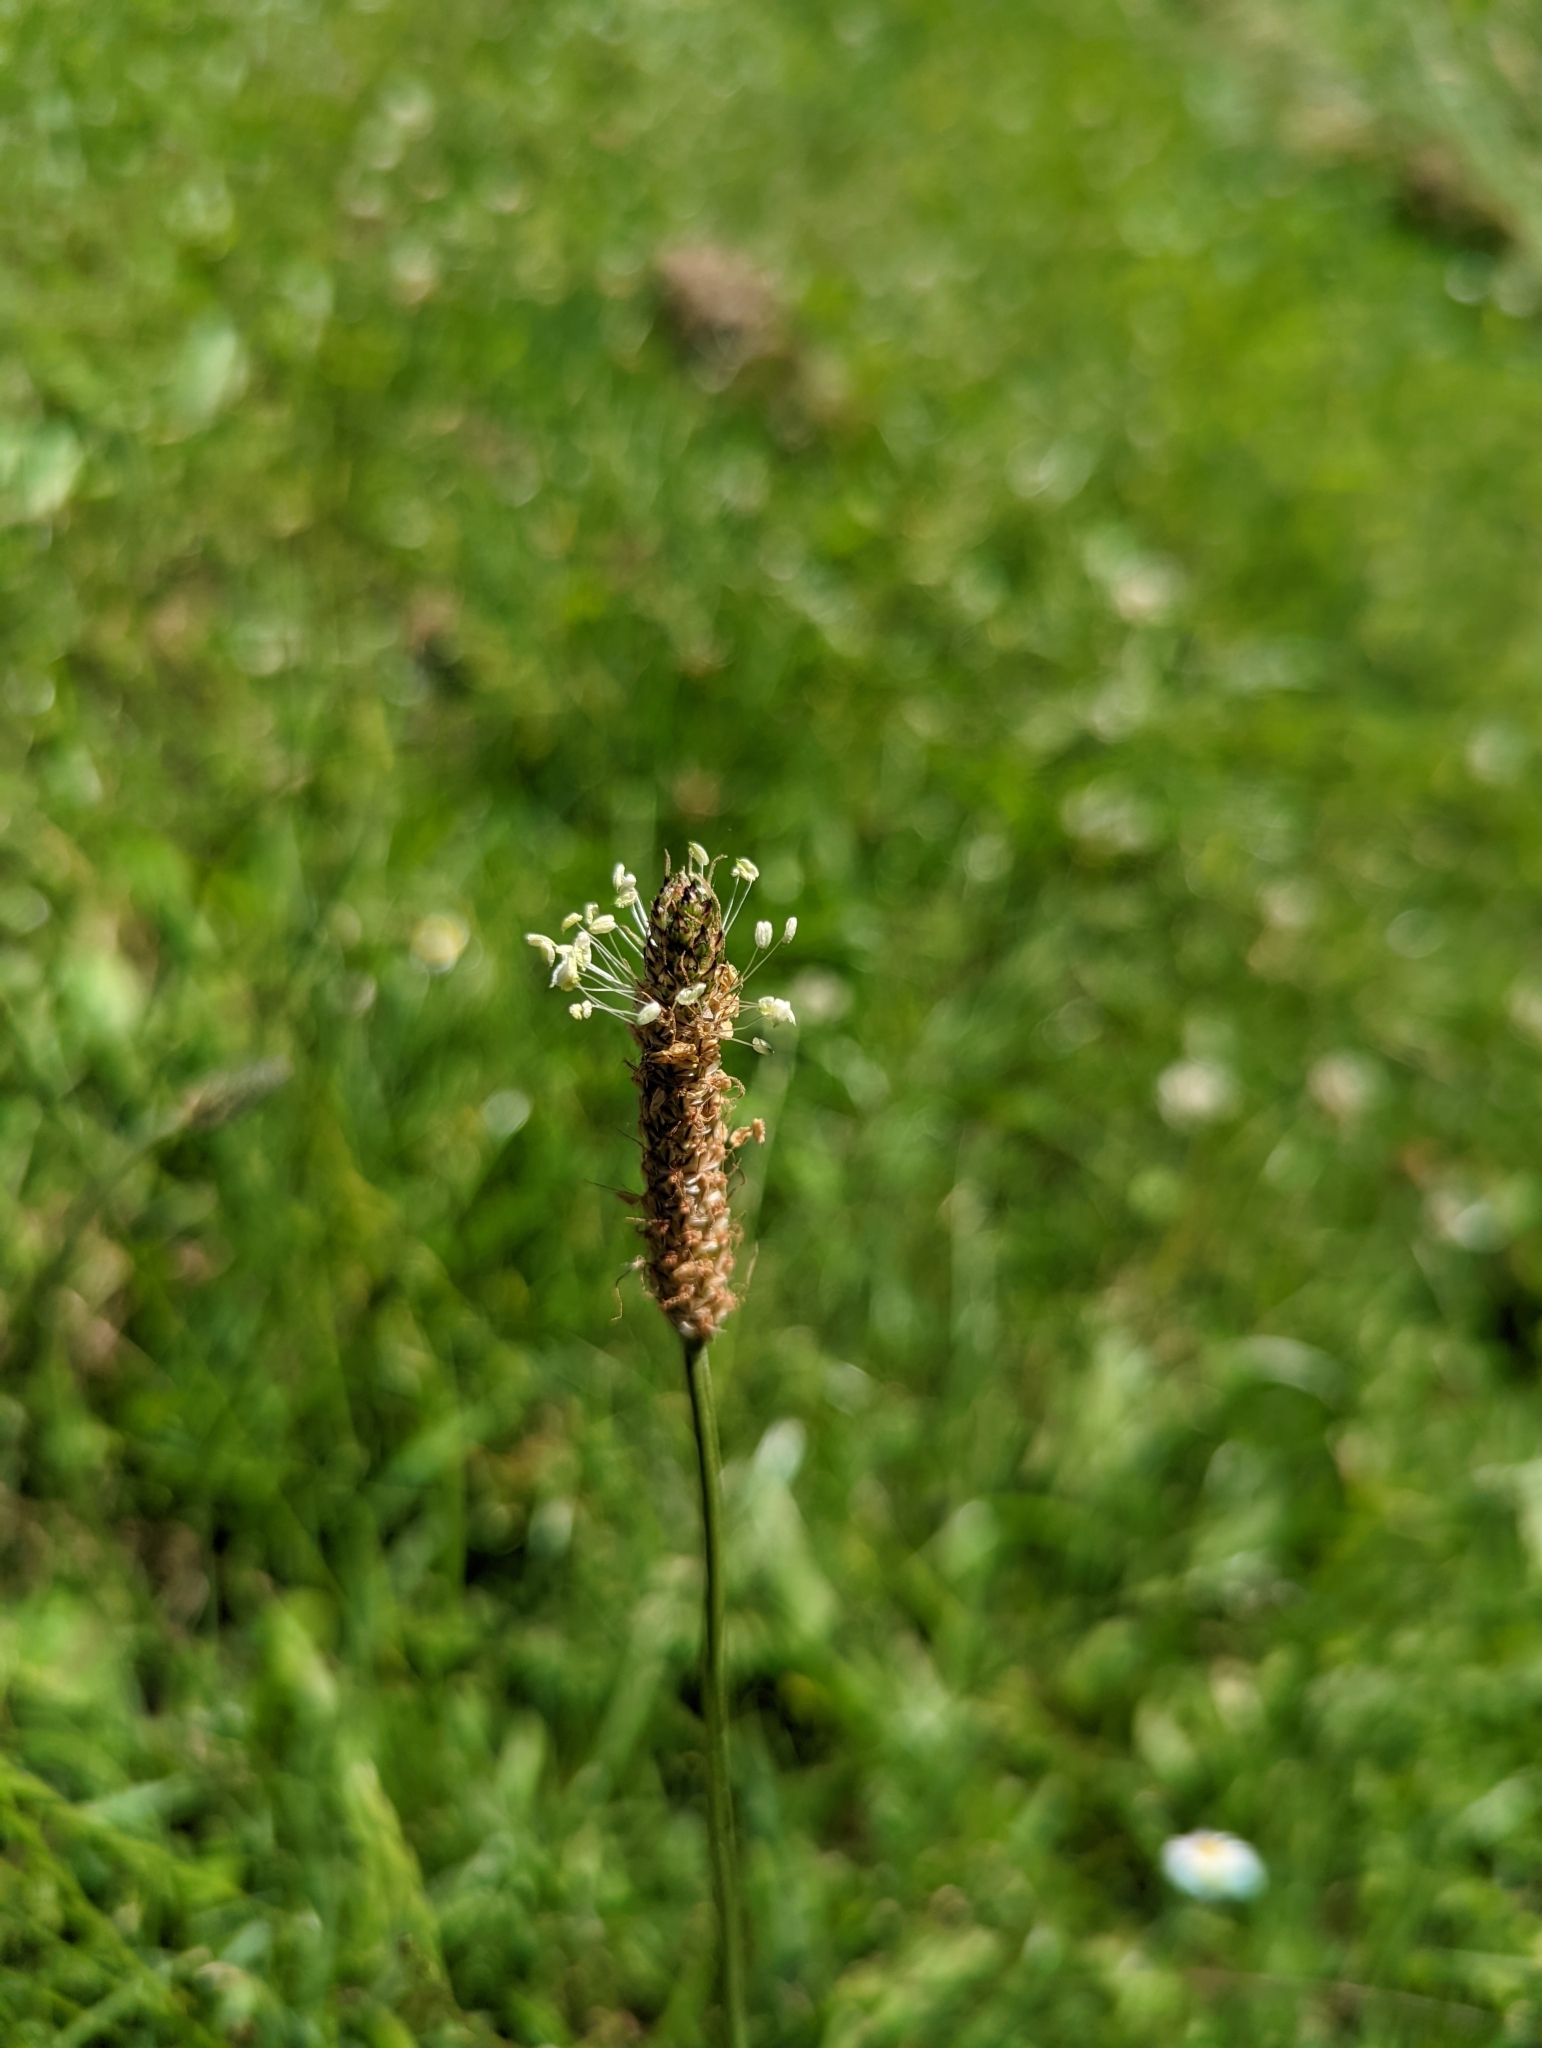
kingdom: Plantae
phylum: Tracheophyta
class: Magnoliopsida
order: Lamiales
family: Plantaginaceae
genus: Plantago
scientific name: Plantago lanceolata
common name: Ribwort plantain
